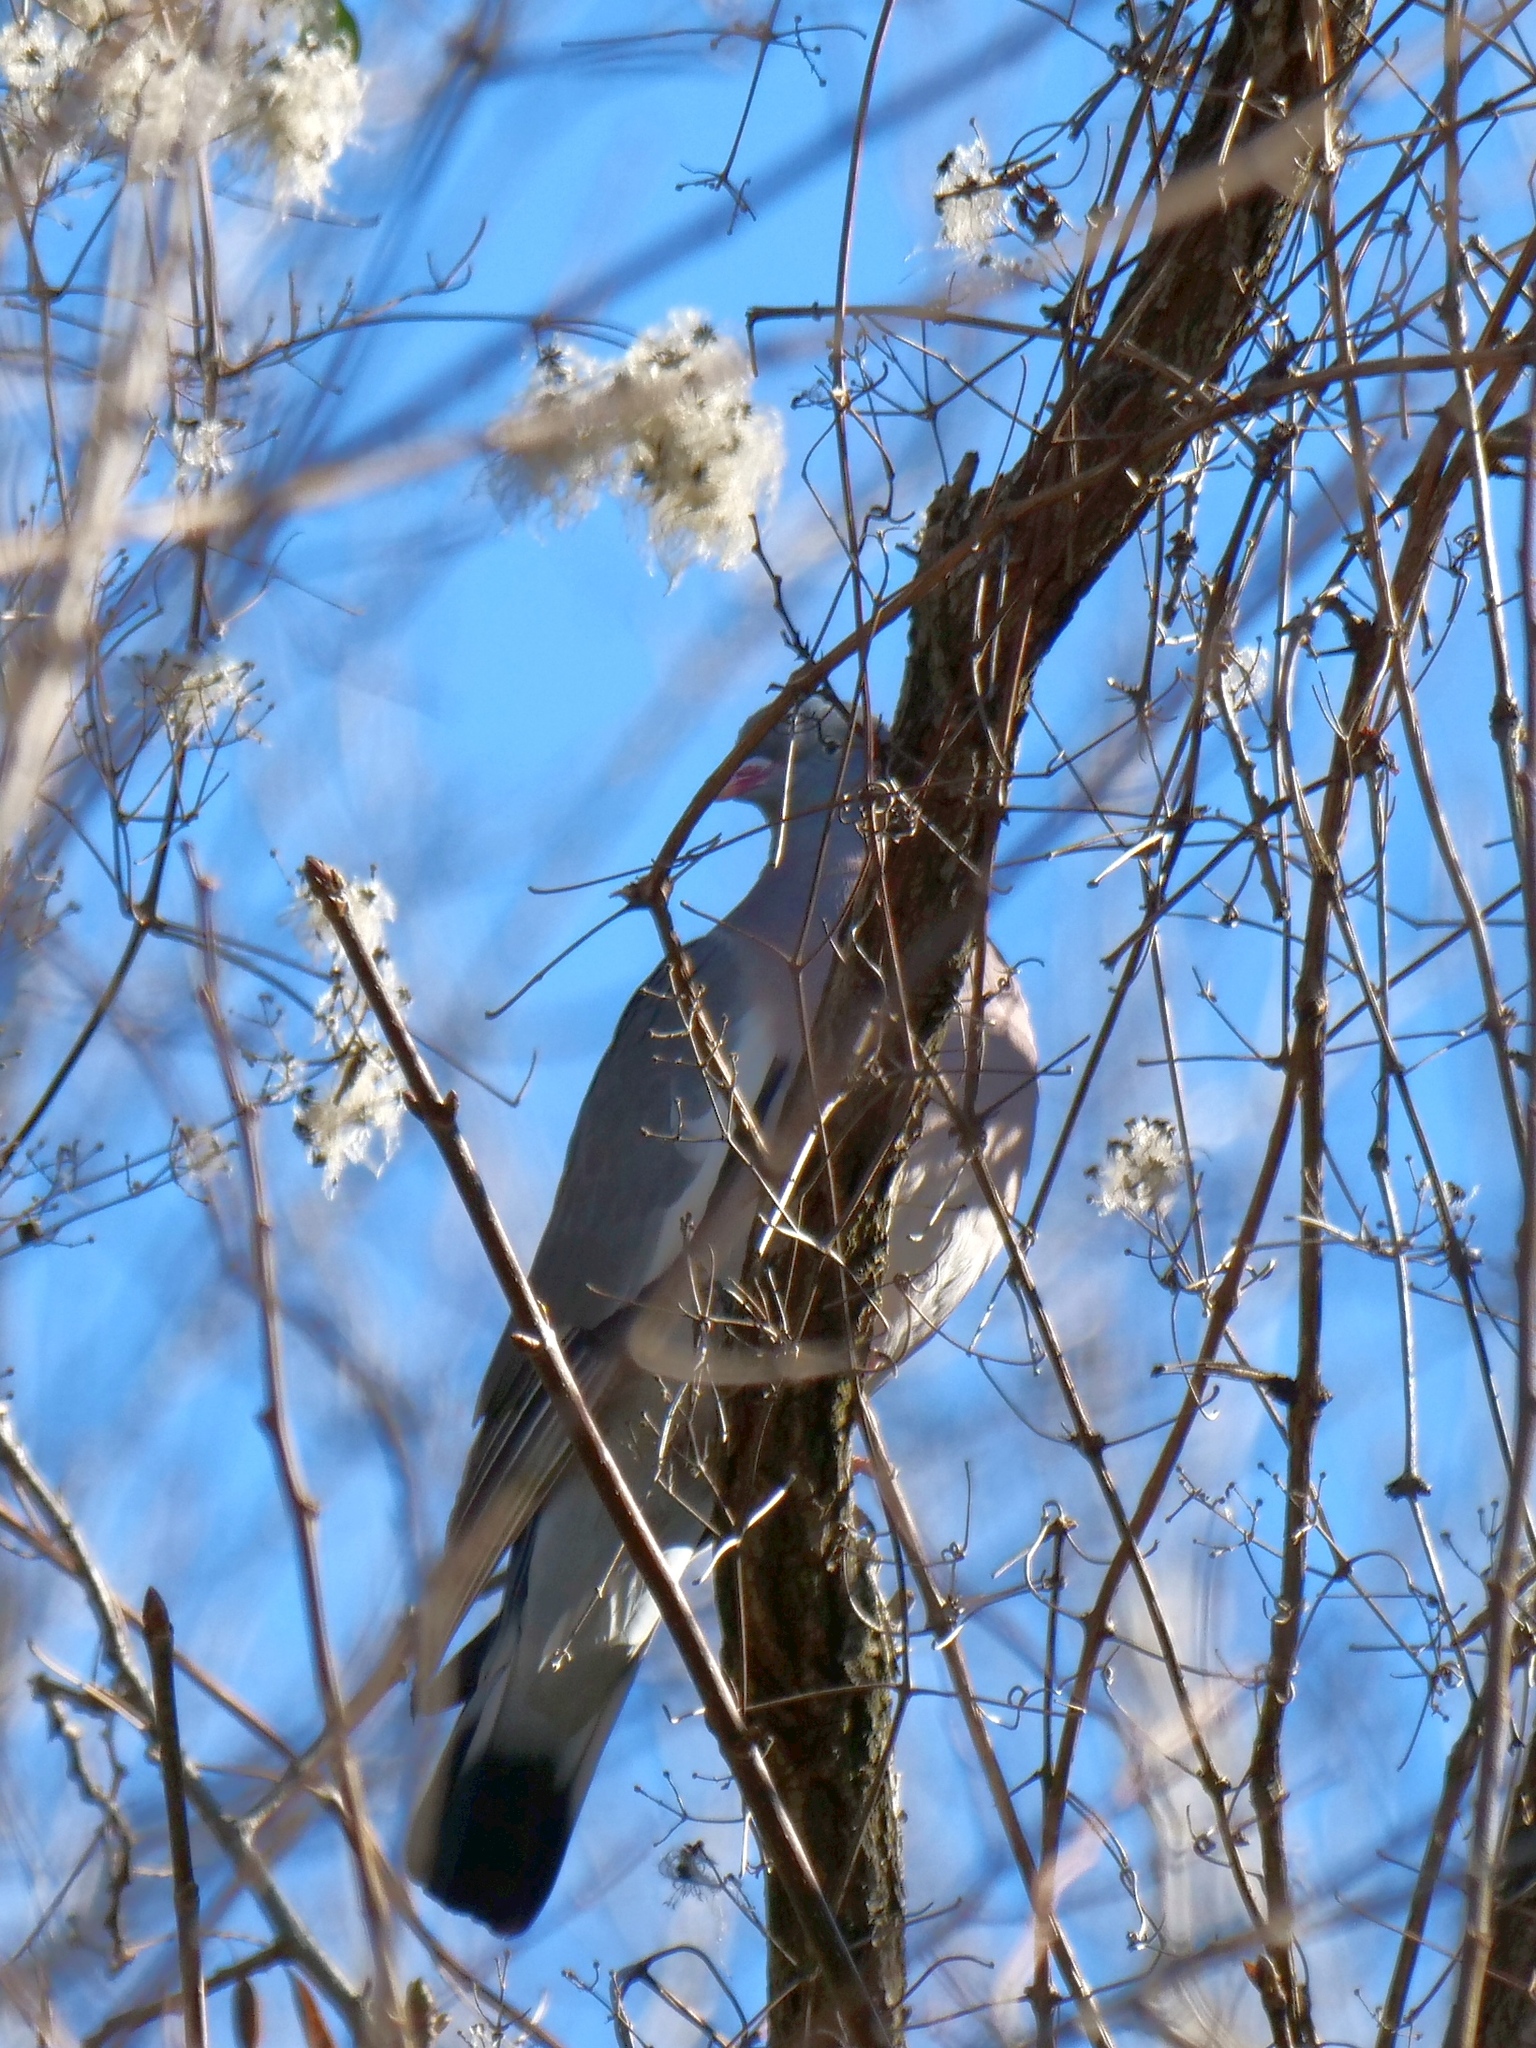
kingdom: Animalia
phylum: Chordata
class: Aves
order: Columbiformes
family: Columbidae
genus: Columba
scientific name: Columba palumbus
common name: Common wood pigeon
